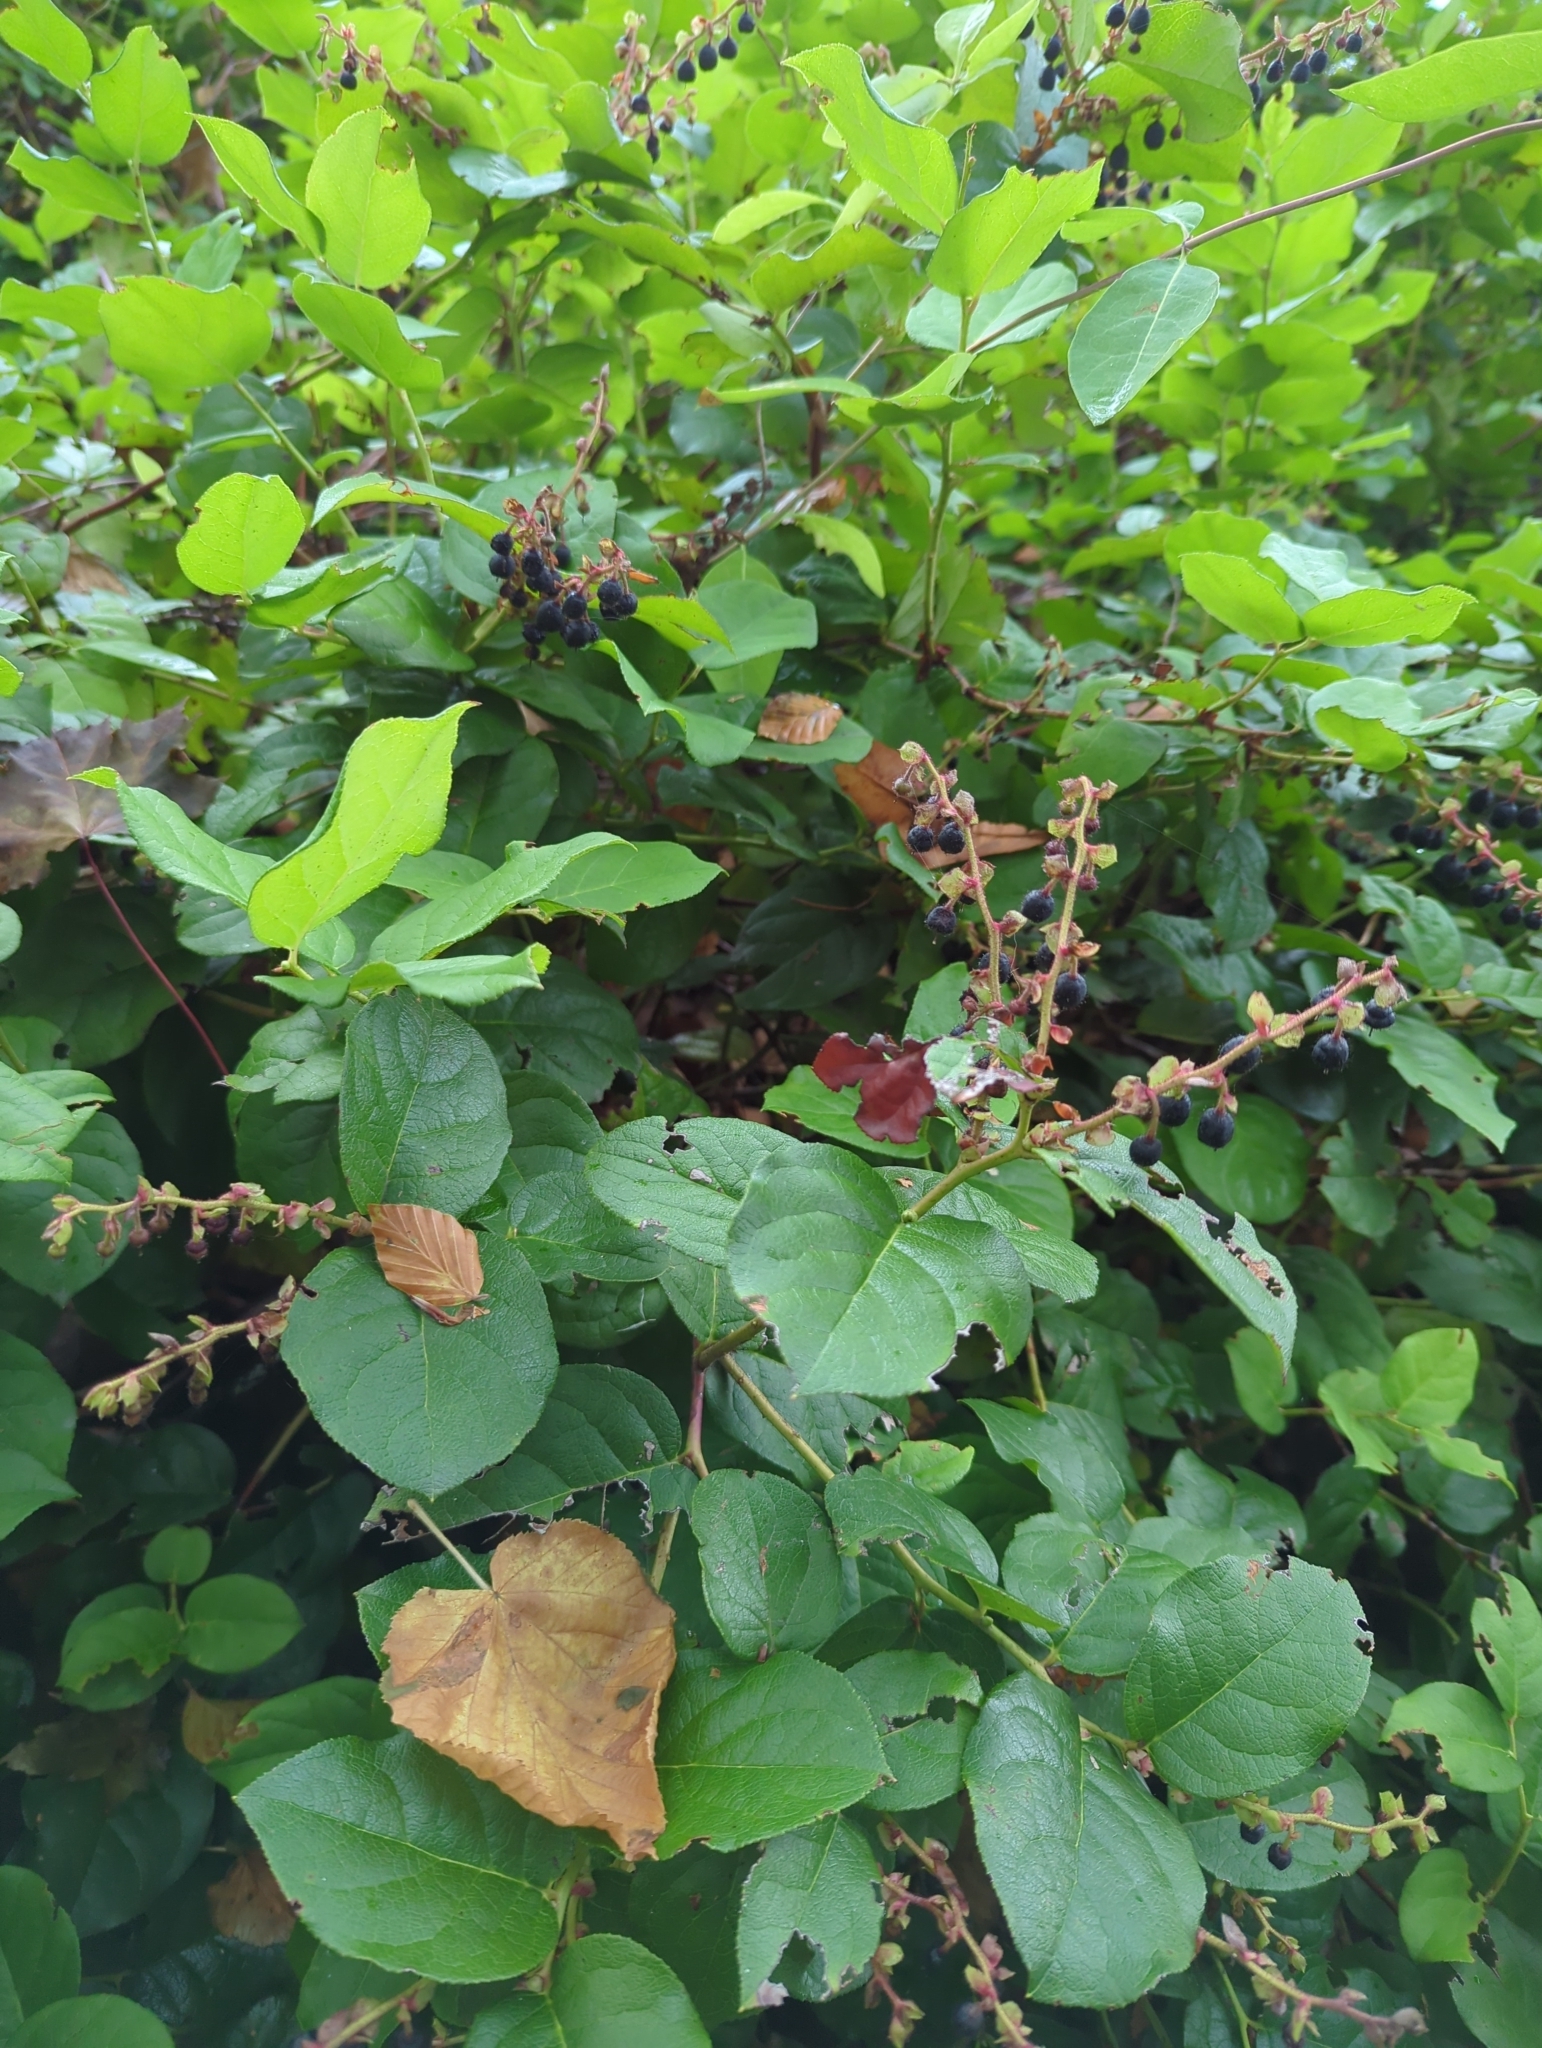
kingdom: Plantae
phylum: Tracheophyta
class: Magnoliopsida
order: Ericales
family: Ericaceae
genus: Gaultheria
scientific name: Gaultheria shallon
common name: Shallon
